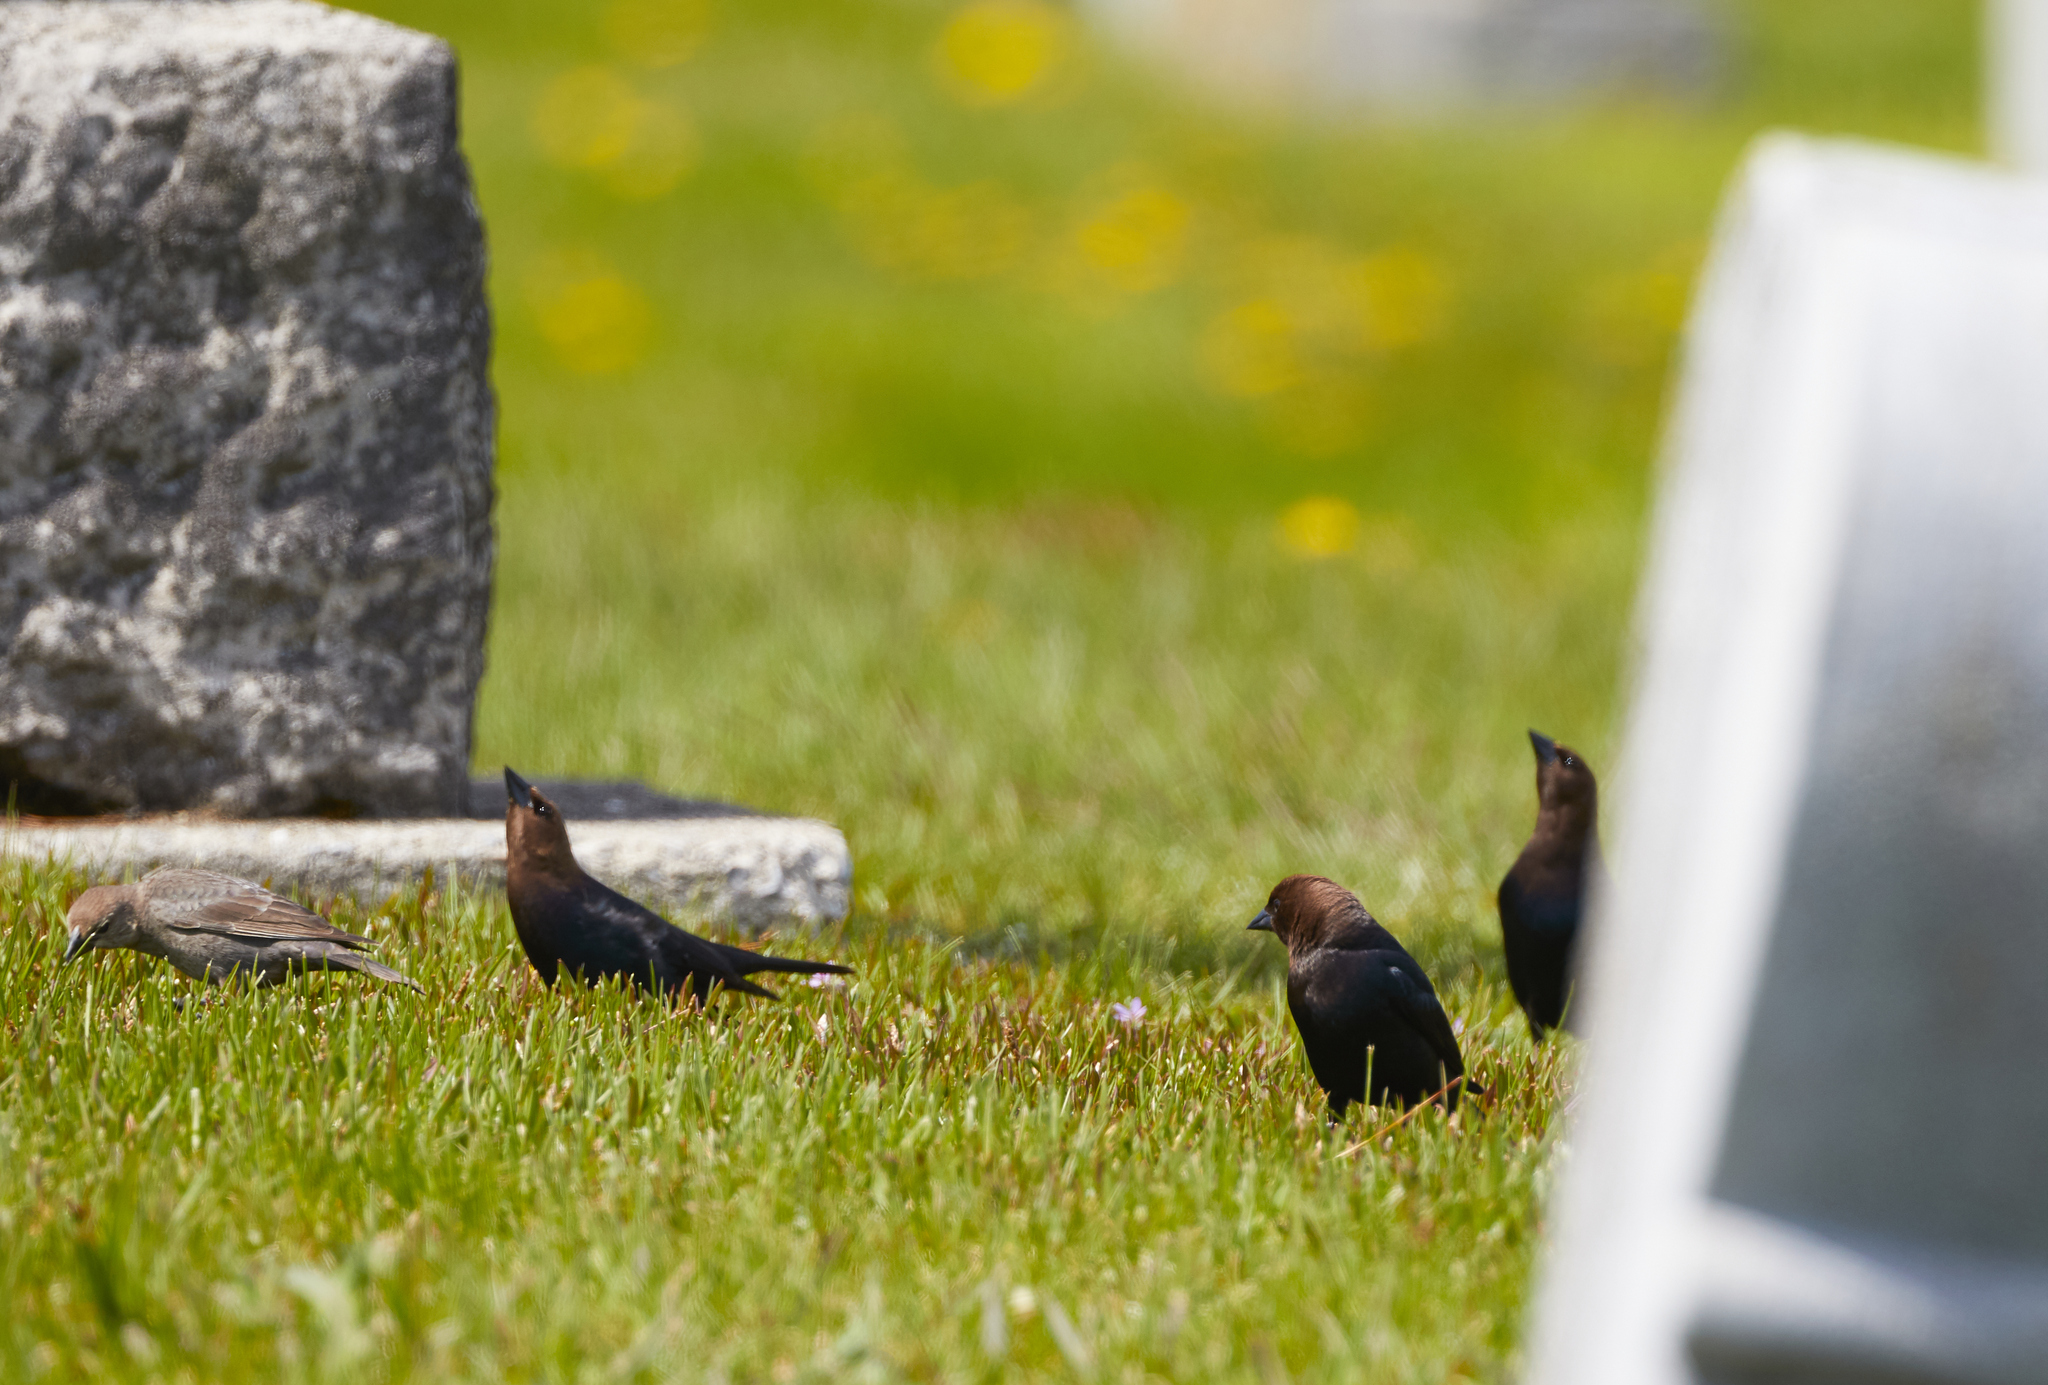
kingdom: Animalia
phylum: Chordata
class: Aves
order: Passeriformes
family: Icteridae
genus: Molothrus
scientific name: Molothrus ater
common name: Brown-headed cowbird
